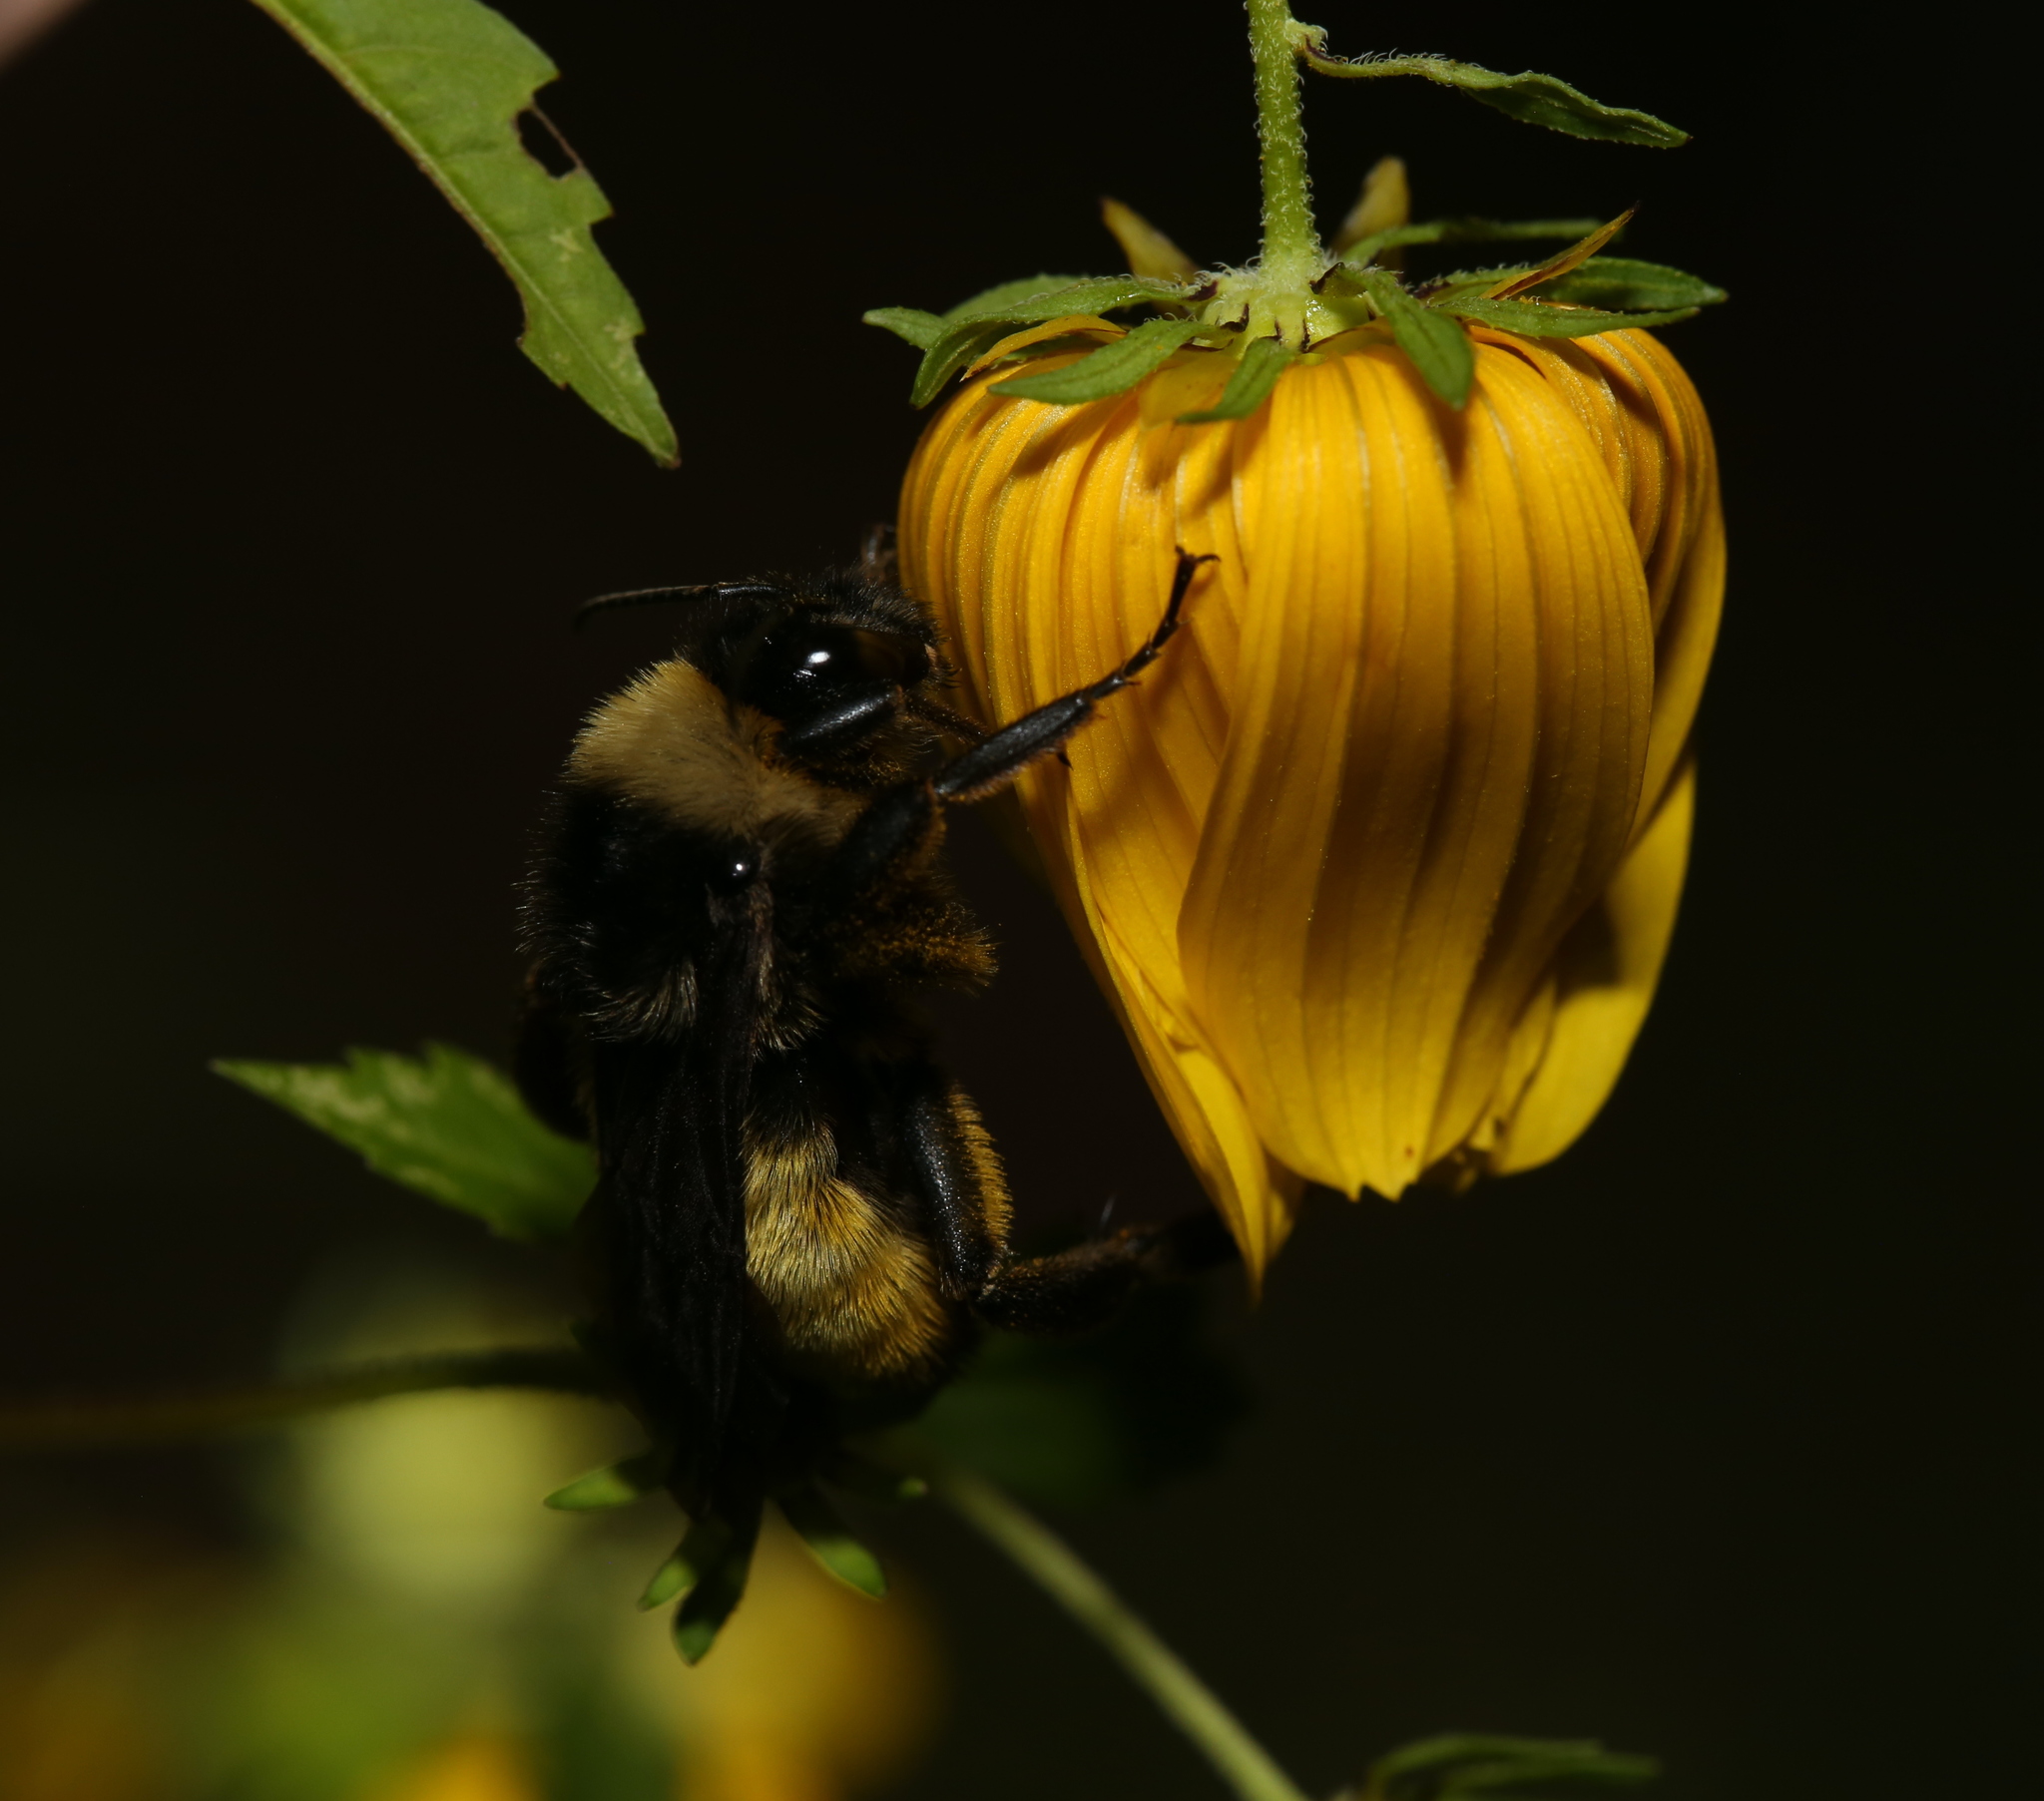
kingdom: Animalia
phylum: Arthropoda
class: Insecta
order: Hymenoptera
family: Apidae
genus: Bombus
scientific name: Bombus pensylvanicus
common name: Bumble bee
